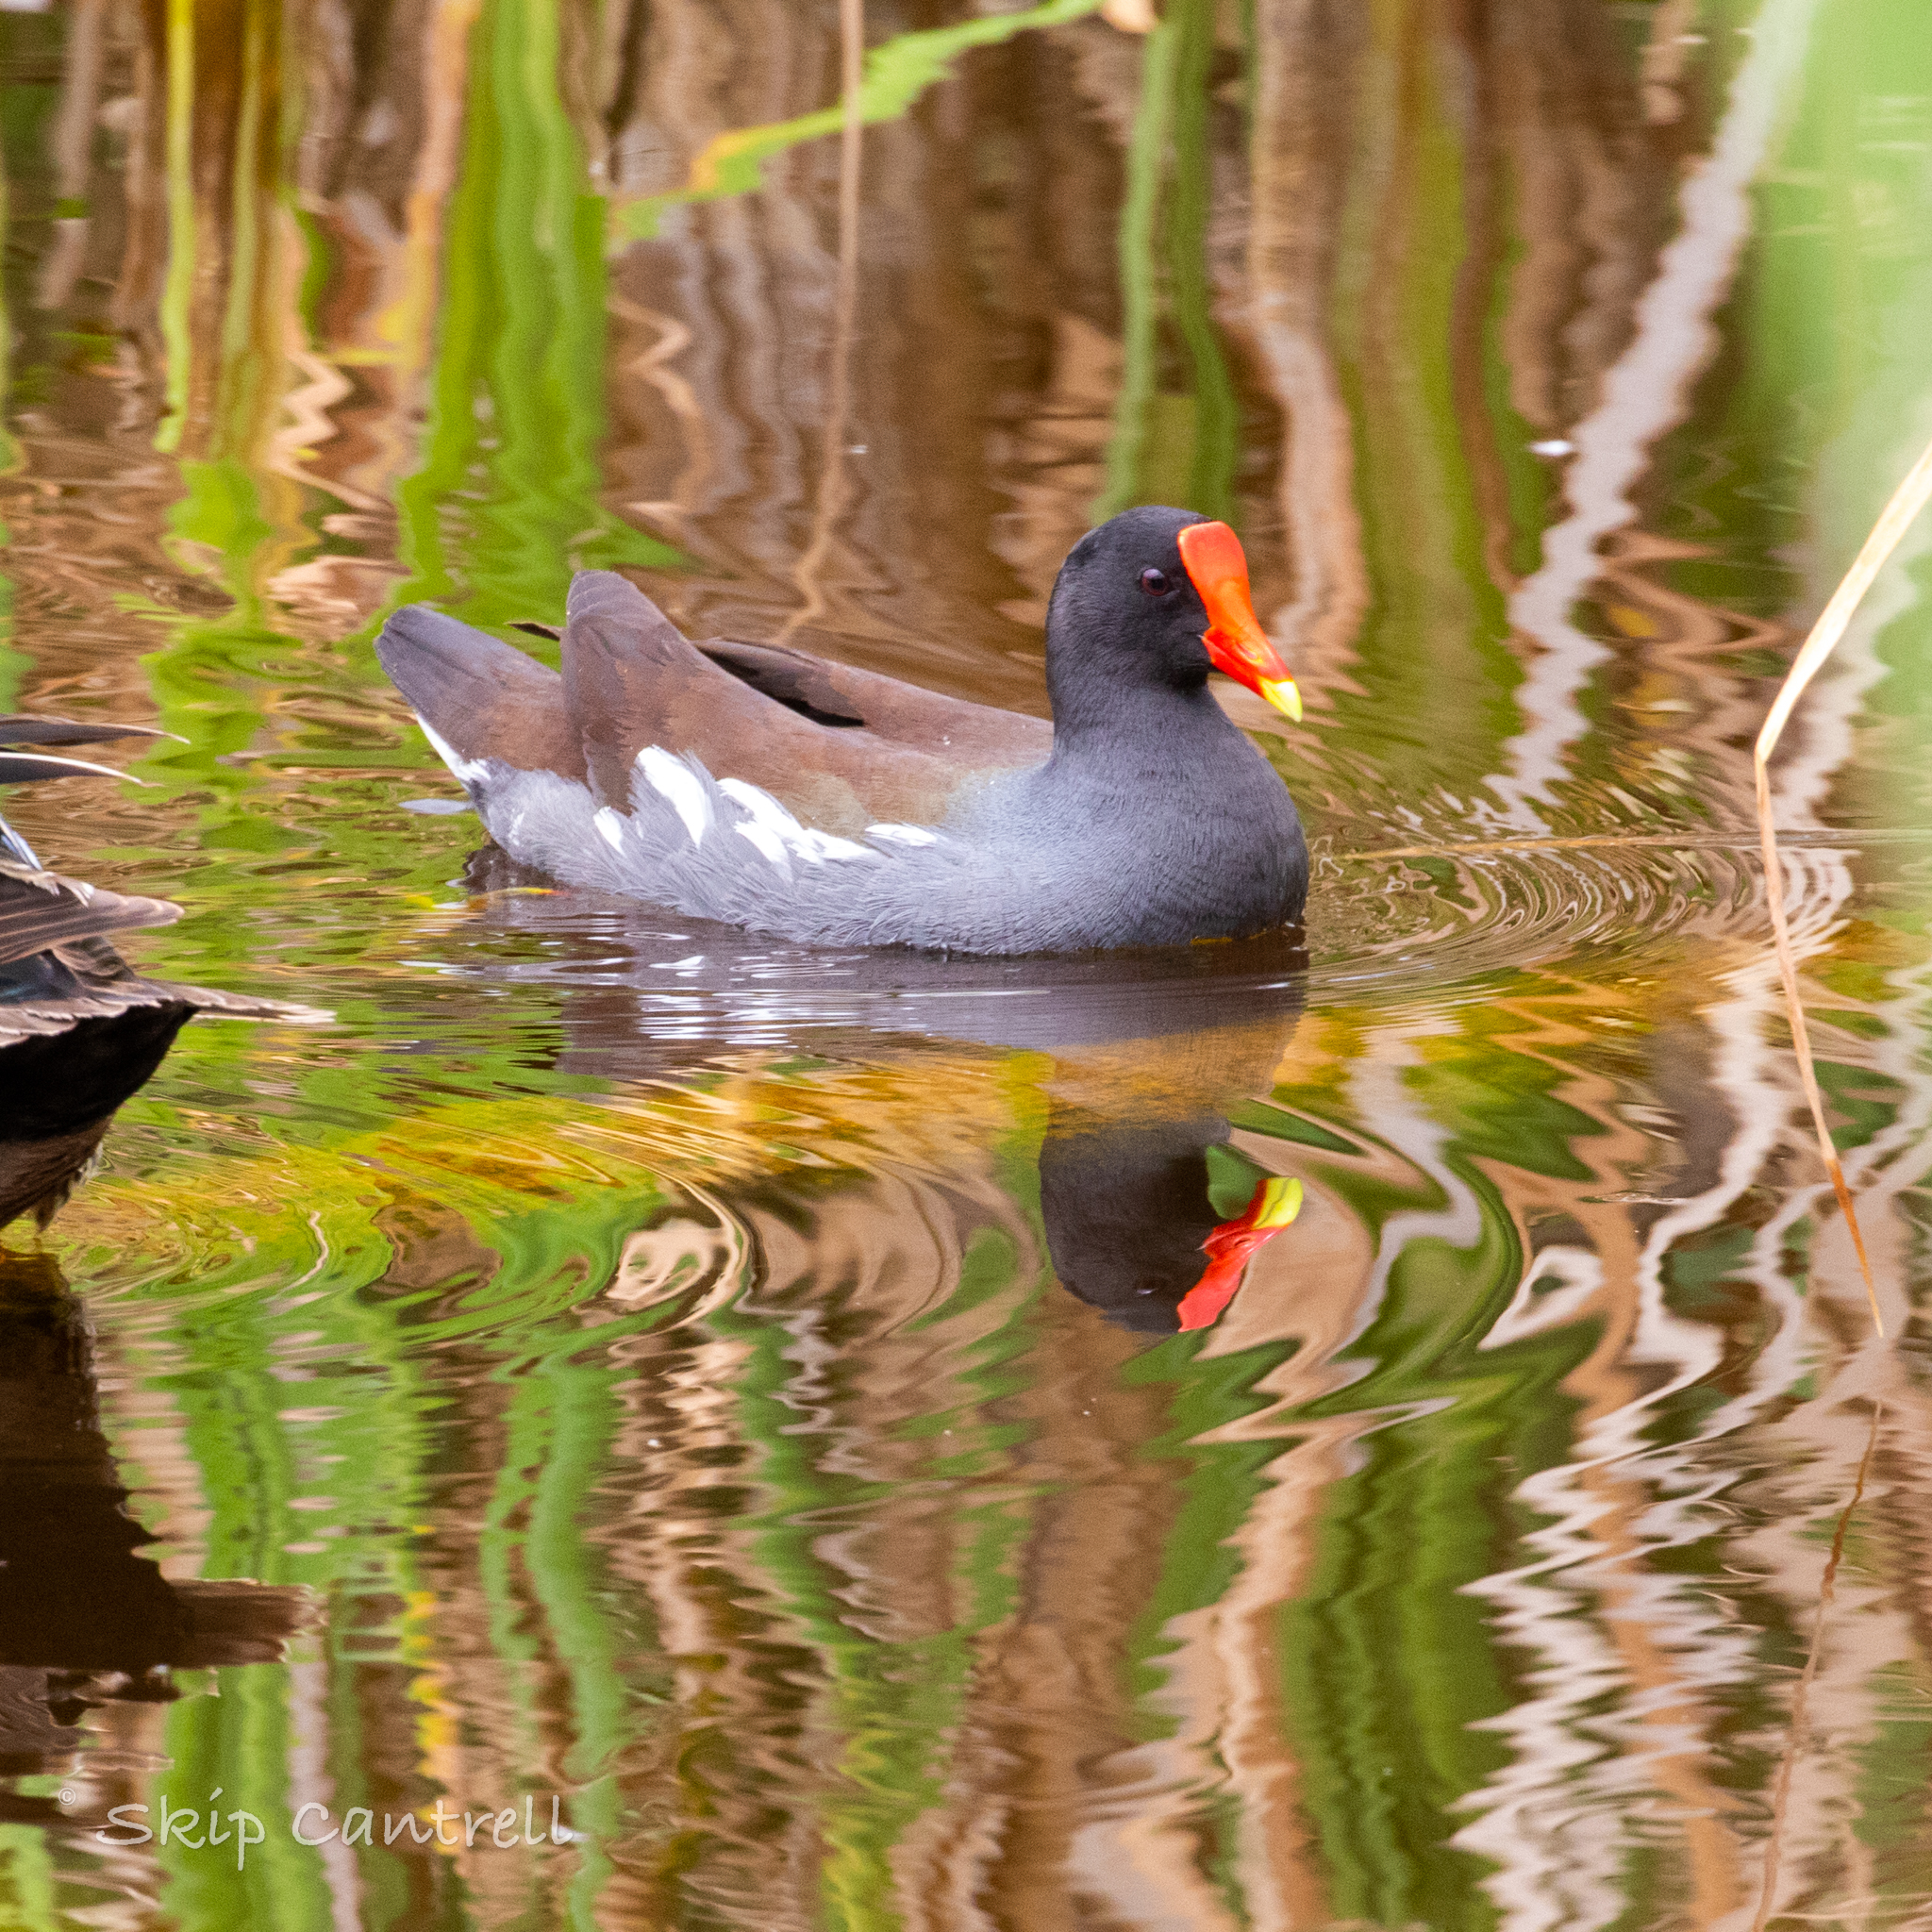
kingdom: Animalia
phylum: Chordata
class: Aves
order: Gruiformes
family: Rallidae
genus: Gallinula
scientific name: Gallinula chloropus
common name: Common moorhen
